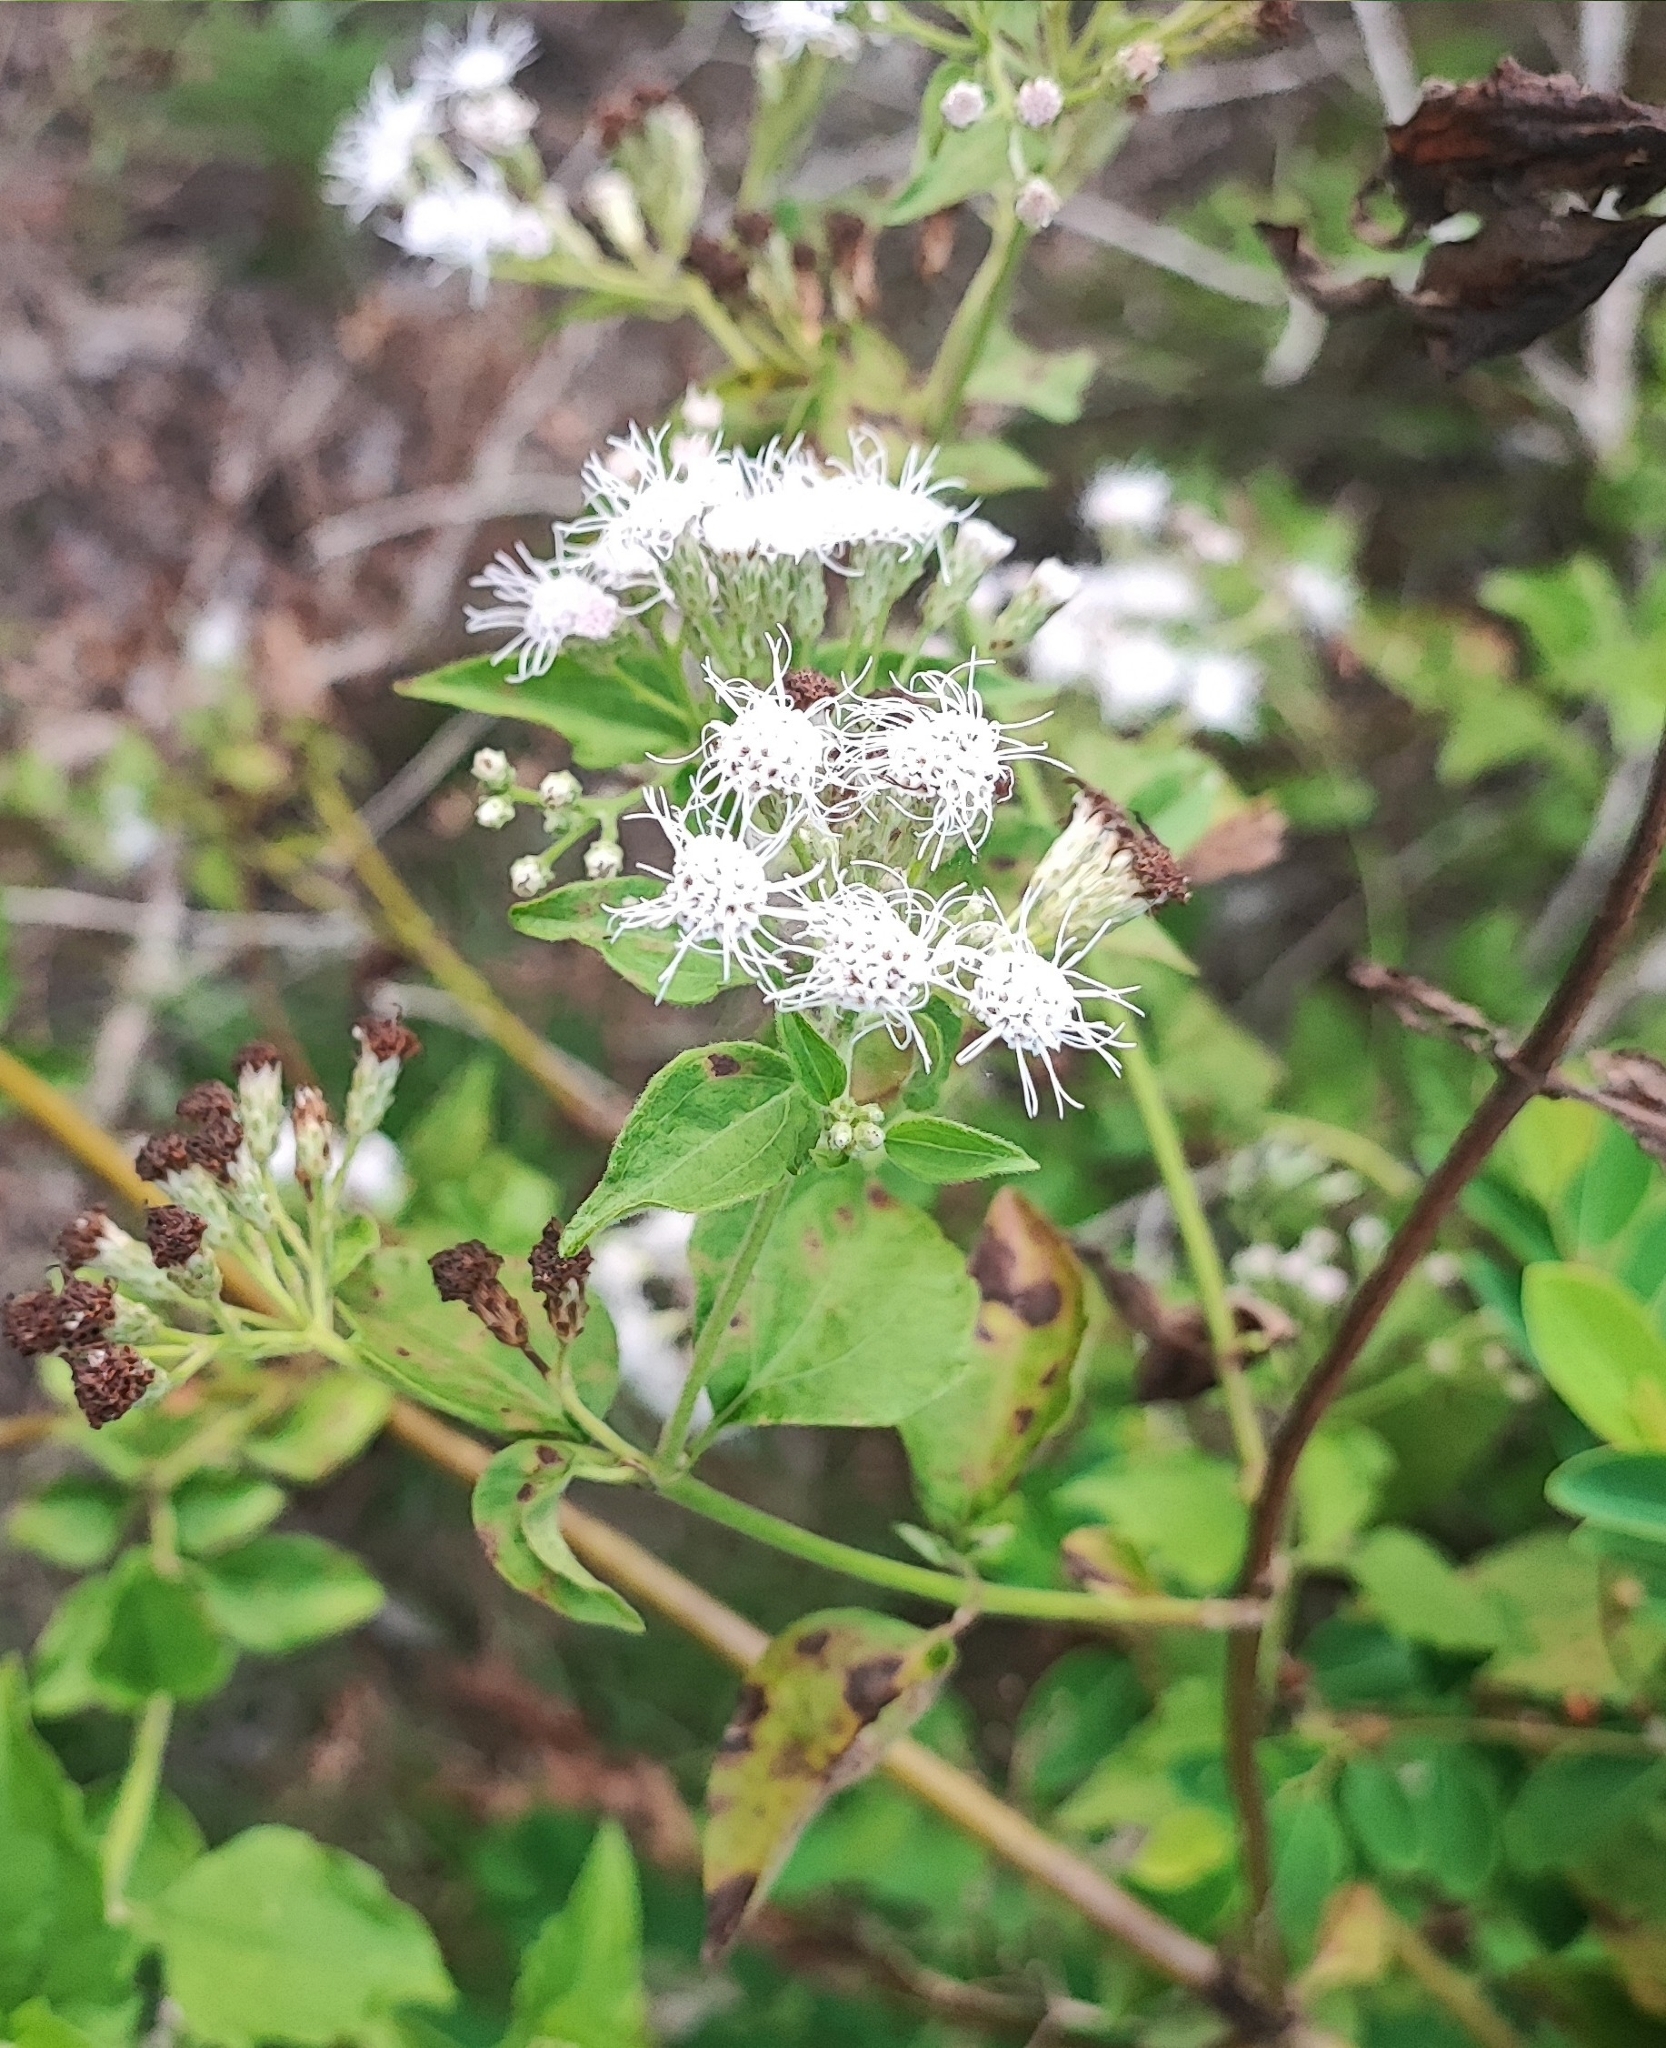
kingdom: Plantae
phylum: Tracheophyta
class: Magnoliopsida
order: Asterales
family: Asteraceae
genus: Chromolaena
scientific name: Chromolaena odorata
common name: Siamweed
